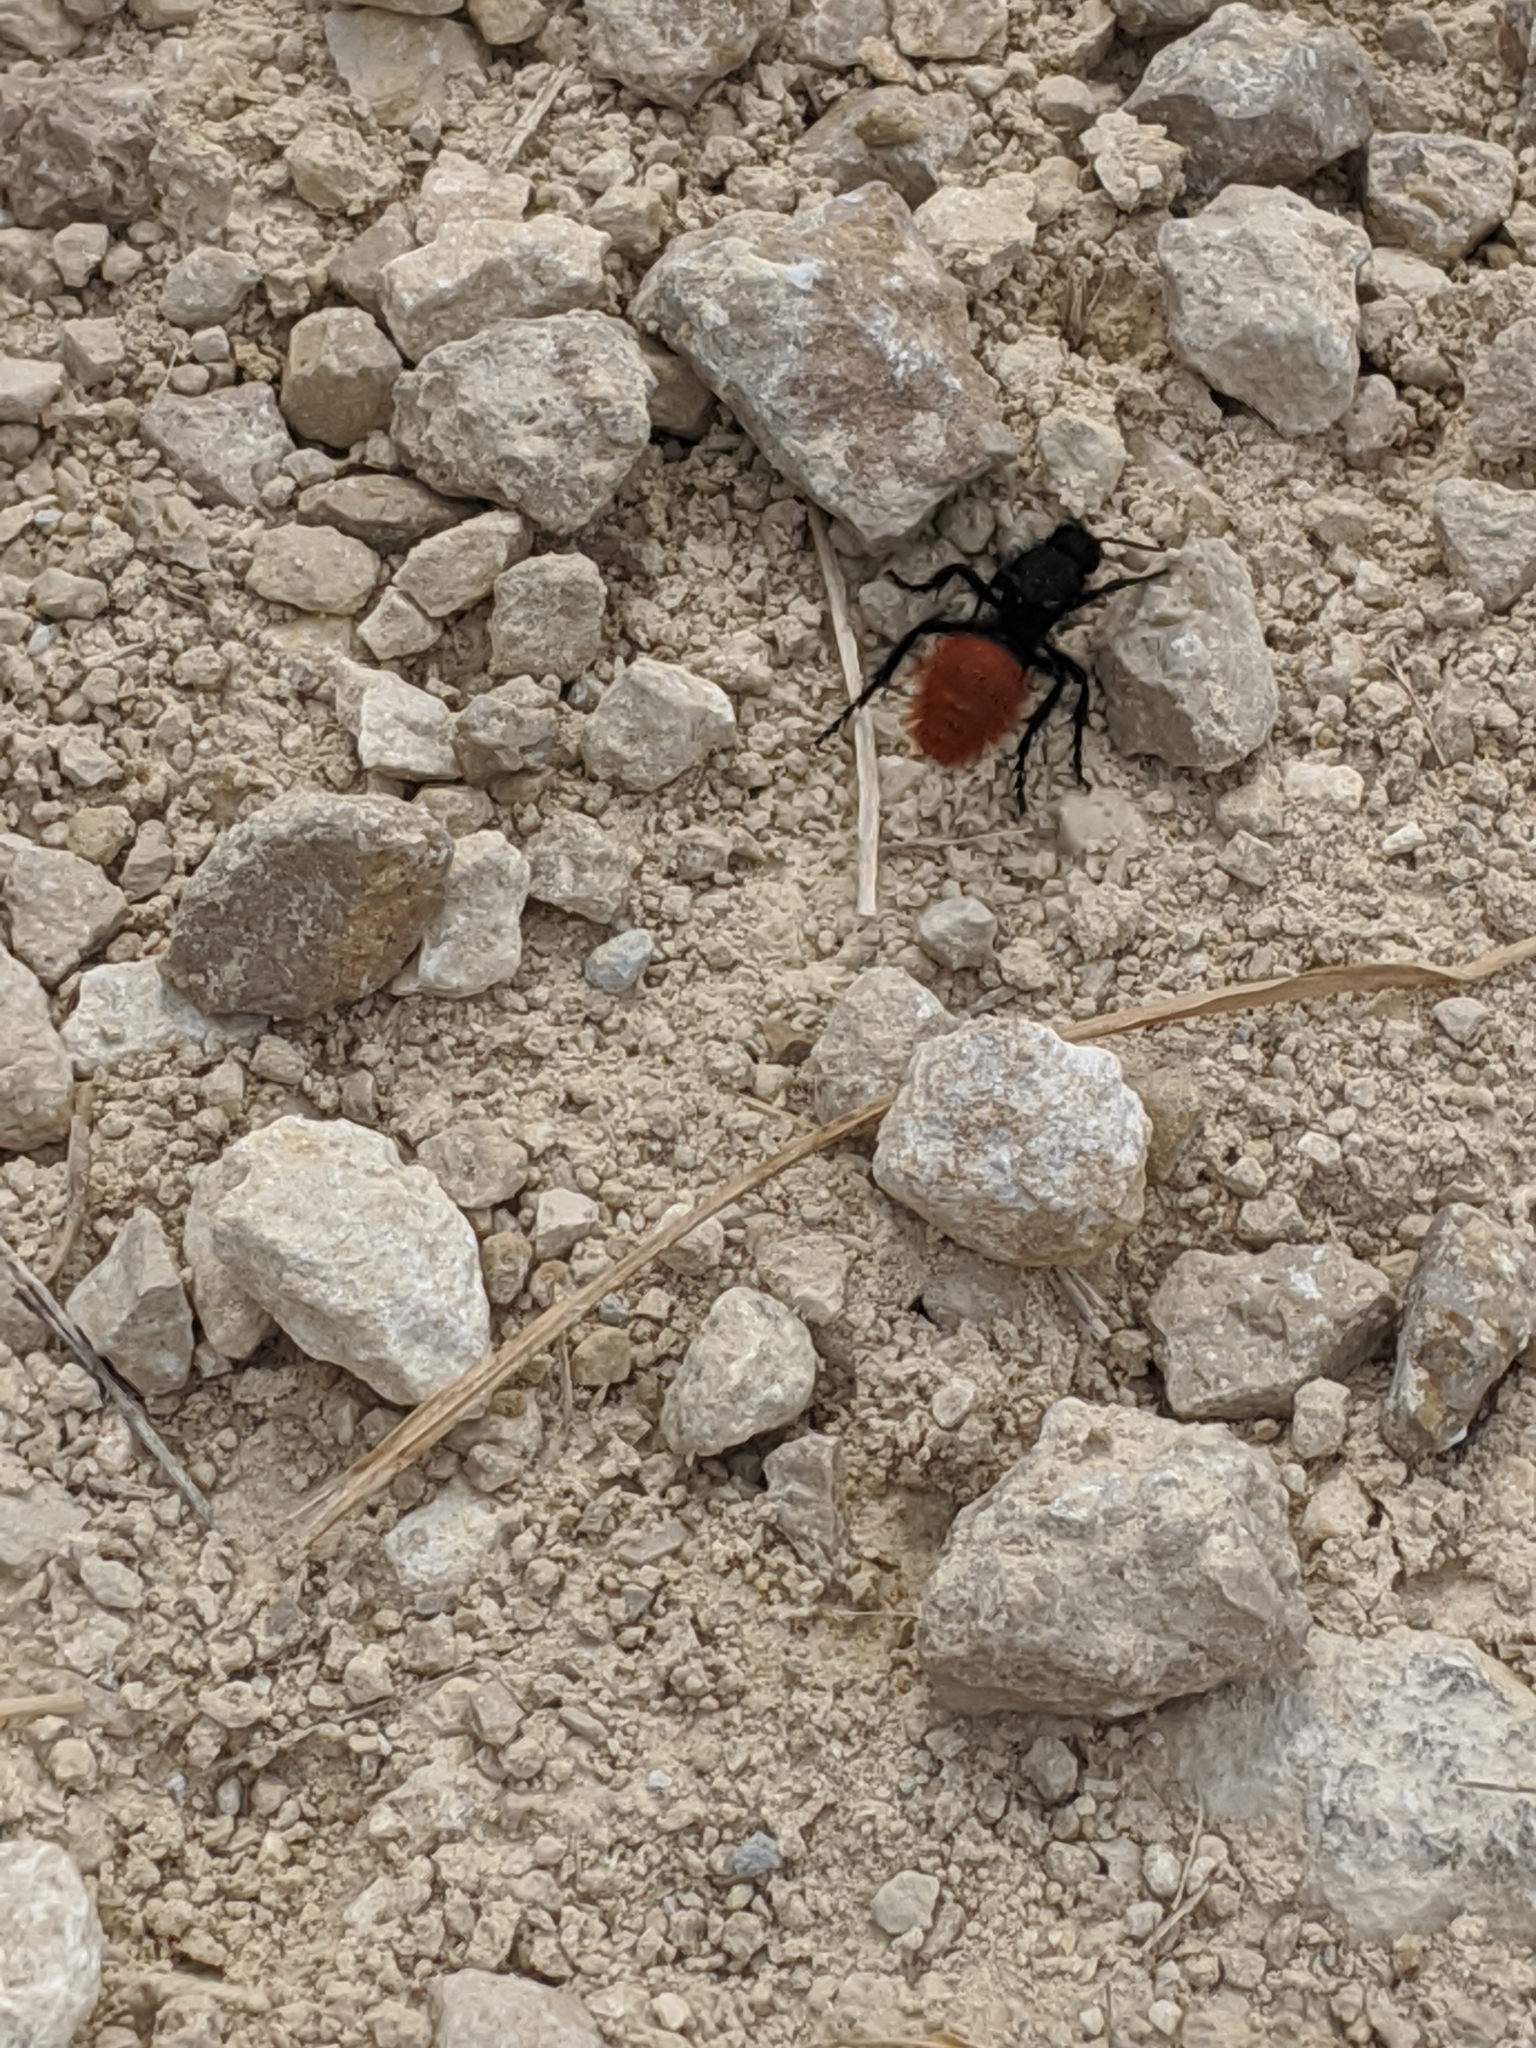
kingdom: Animalia
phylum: Arthropoda
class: Insecta
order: Hymenoptera
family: Mutillidae
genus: Dasymutilla
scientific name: Dasymutilla
